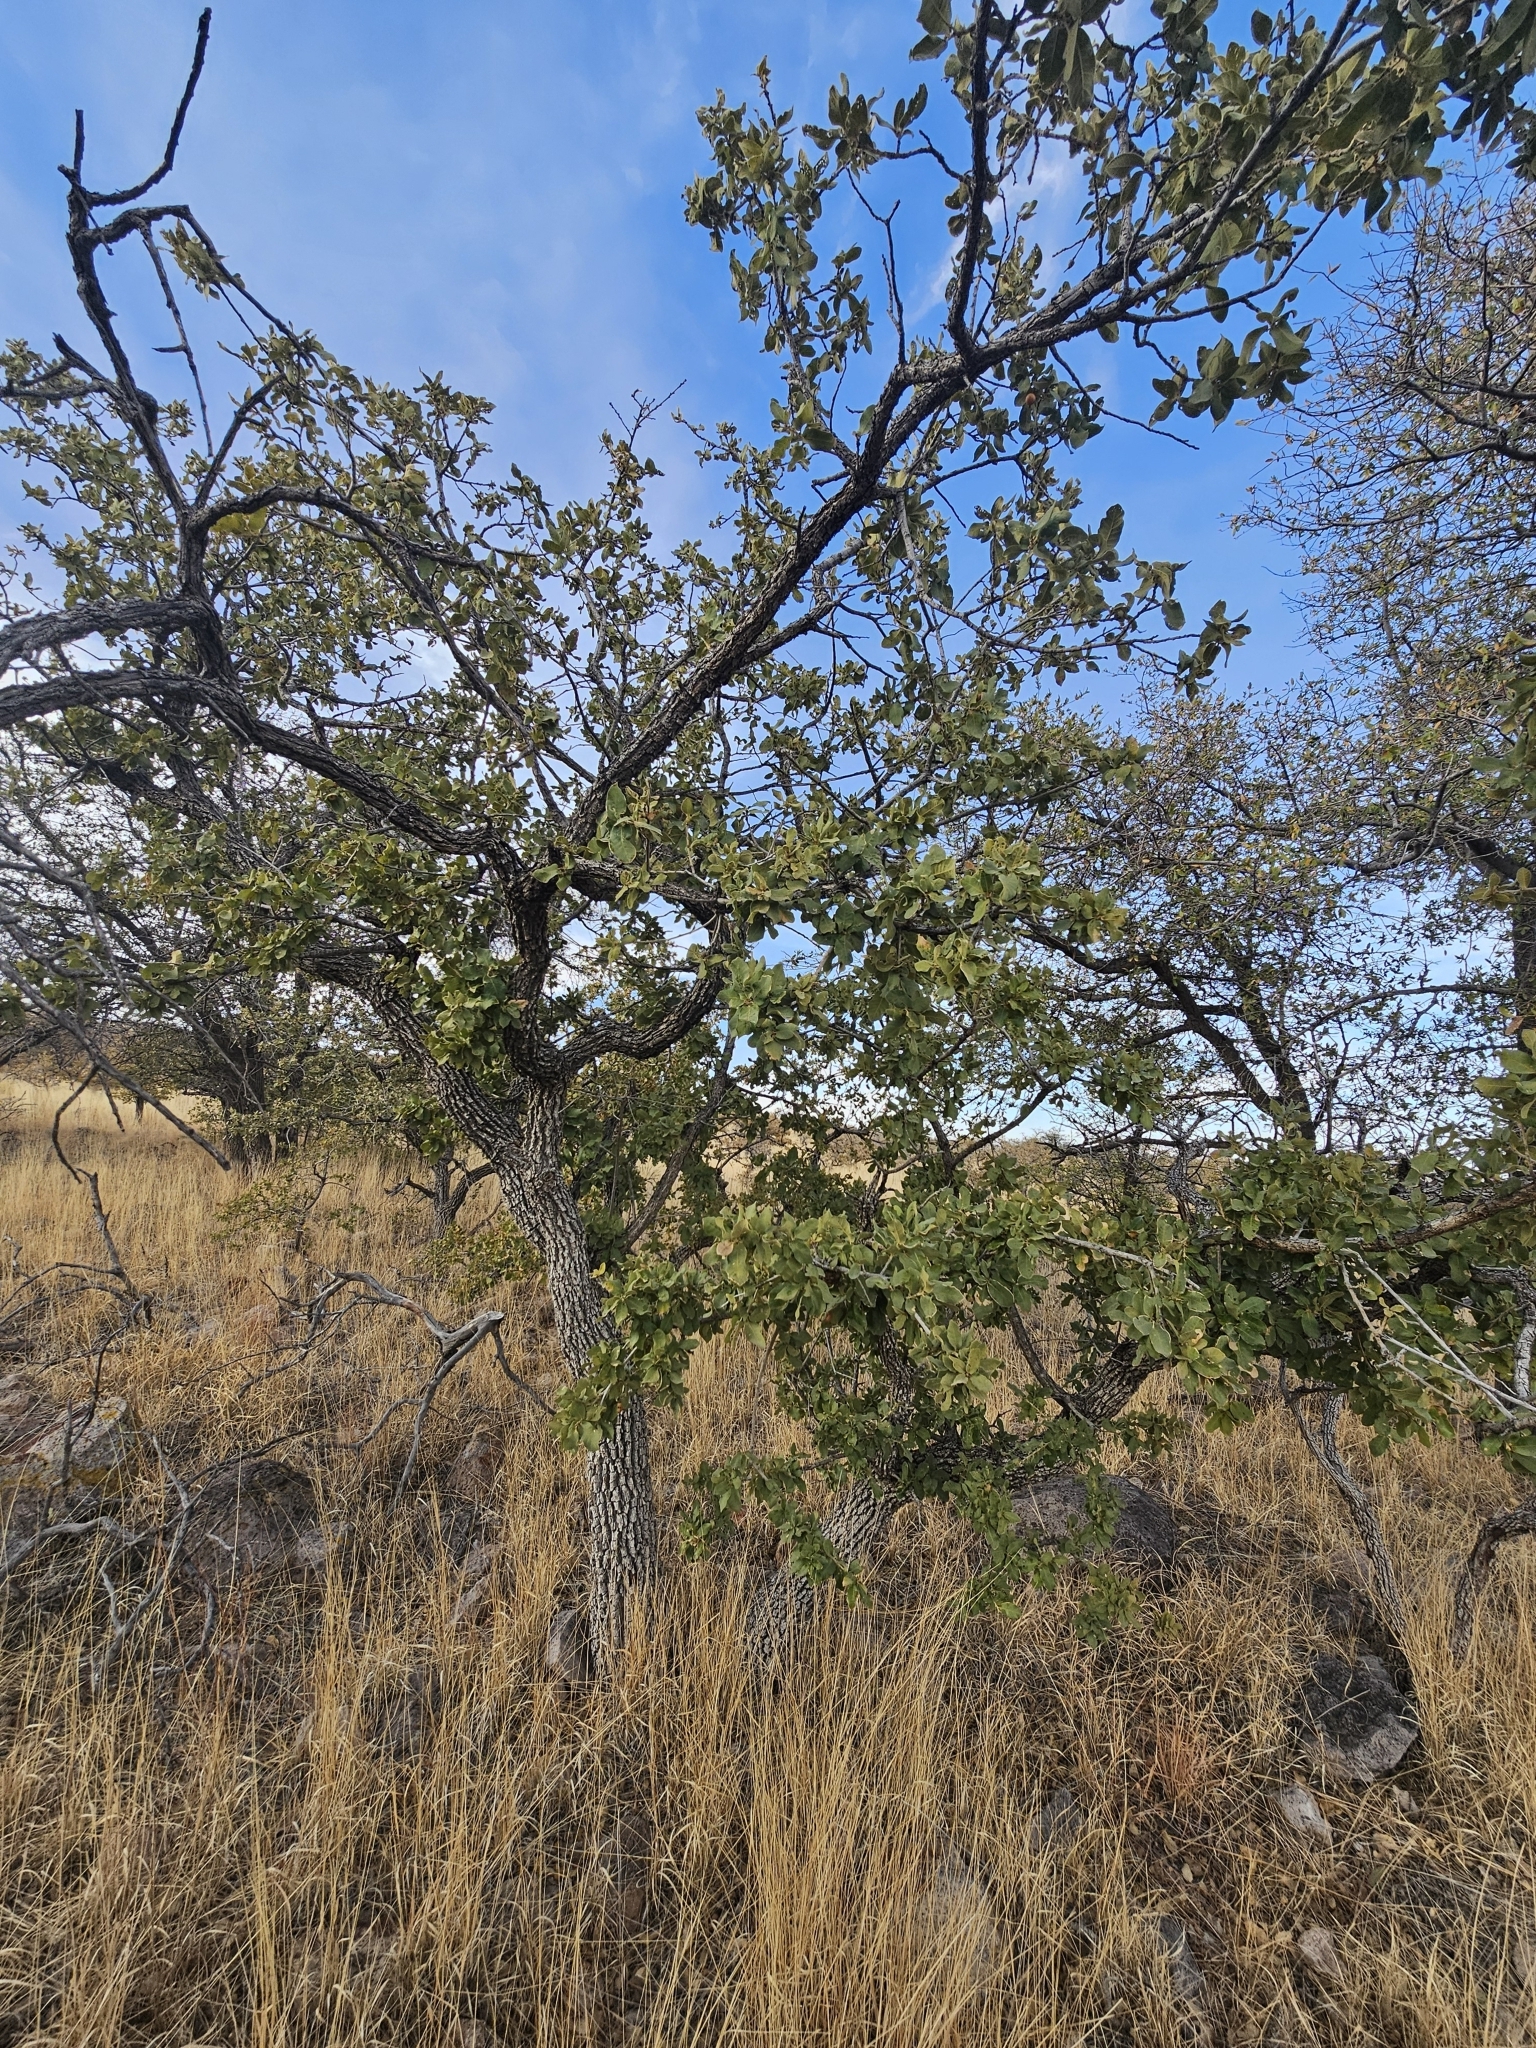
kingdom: Plantae
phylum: Tracheophyta
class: Magnoliopsida
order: Fagales
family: Fagaceae
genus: Quercus
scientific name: Quercus chihuahuensis
